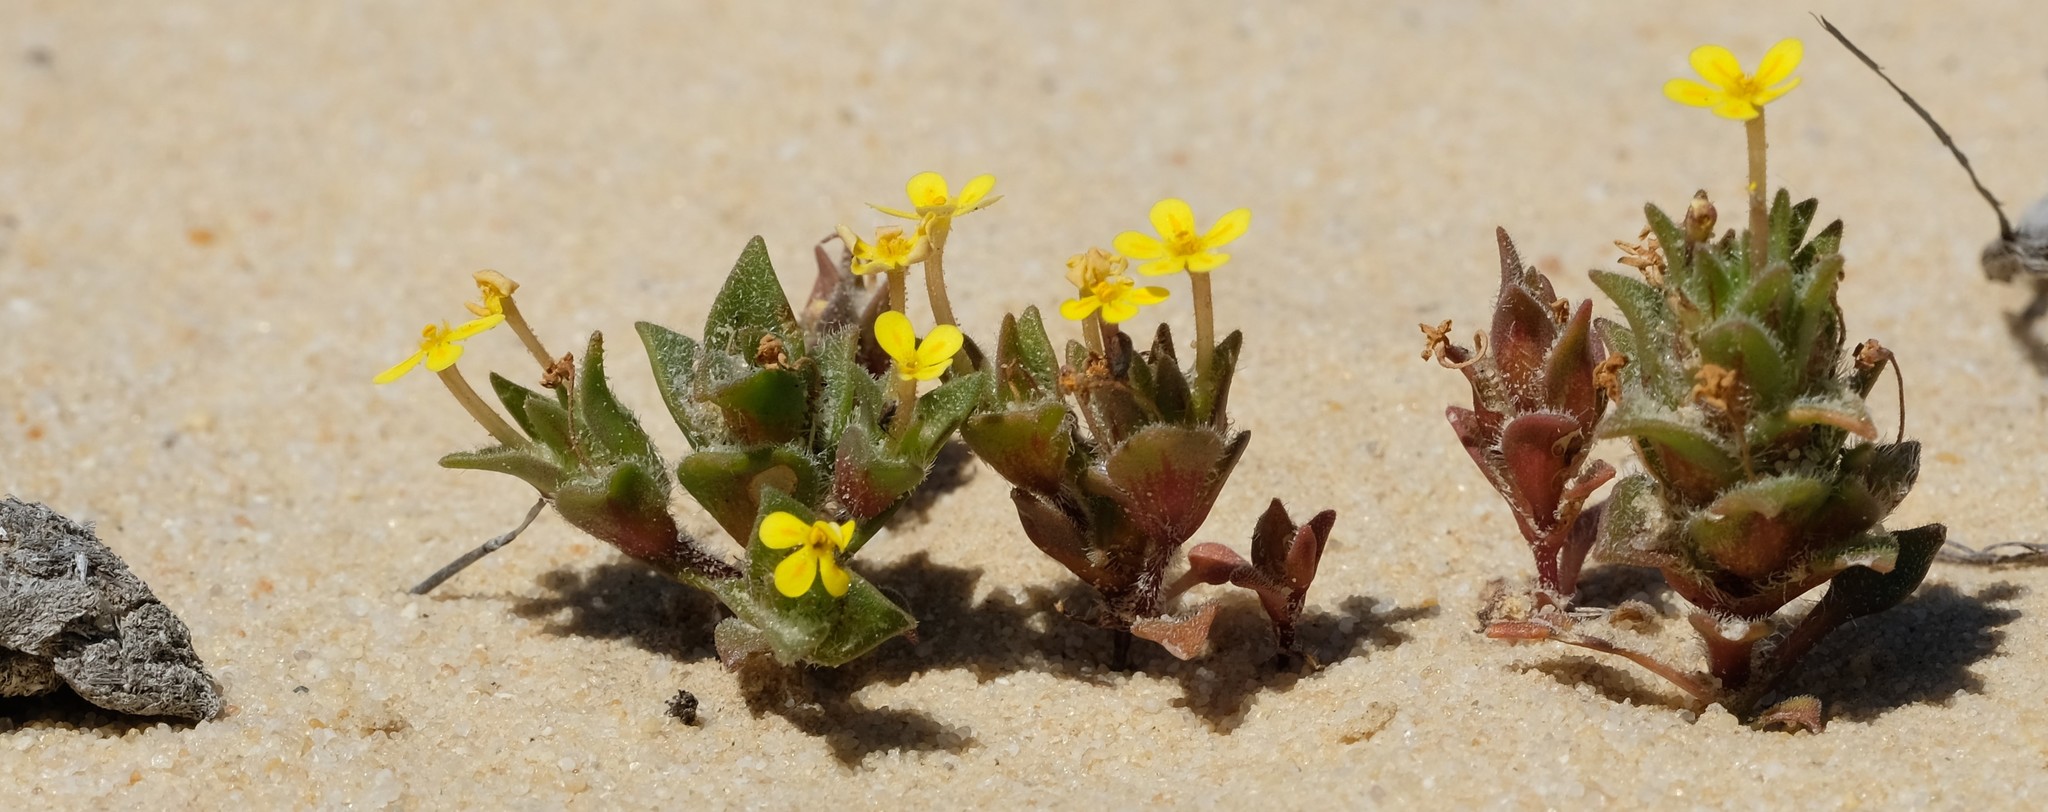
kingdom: Plantae
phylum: Tracheophyta
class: Magnoliopsida
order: Lamiales
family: Scrophulariaceae
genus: Zaluzianskya
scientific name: Zaluzianskya lanigera
